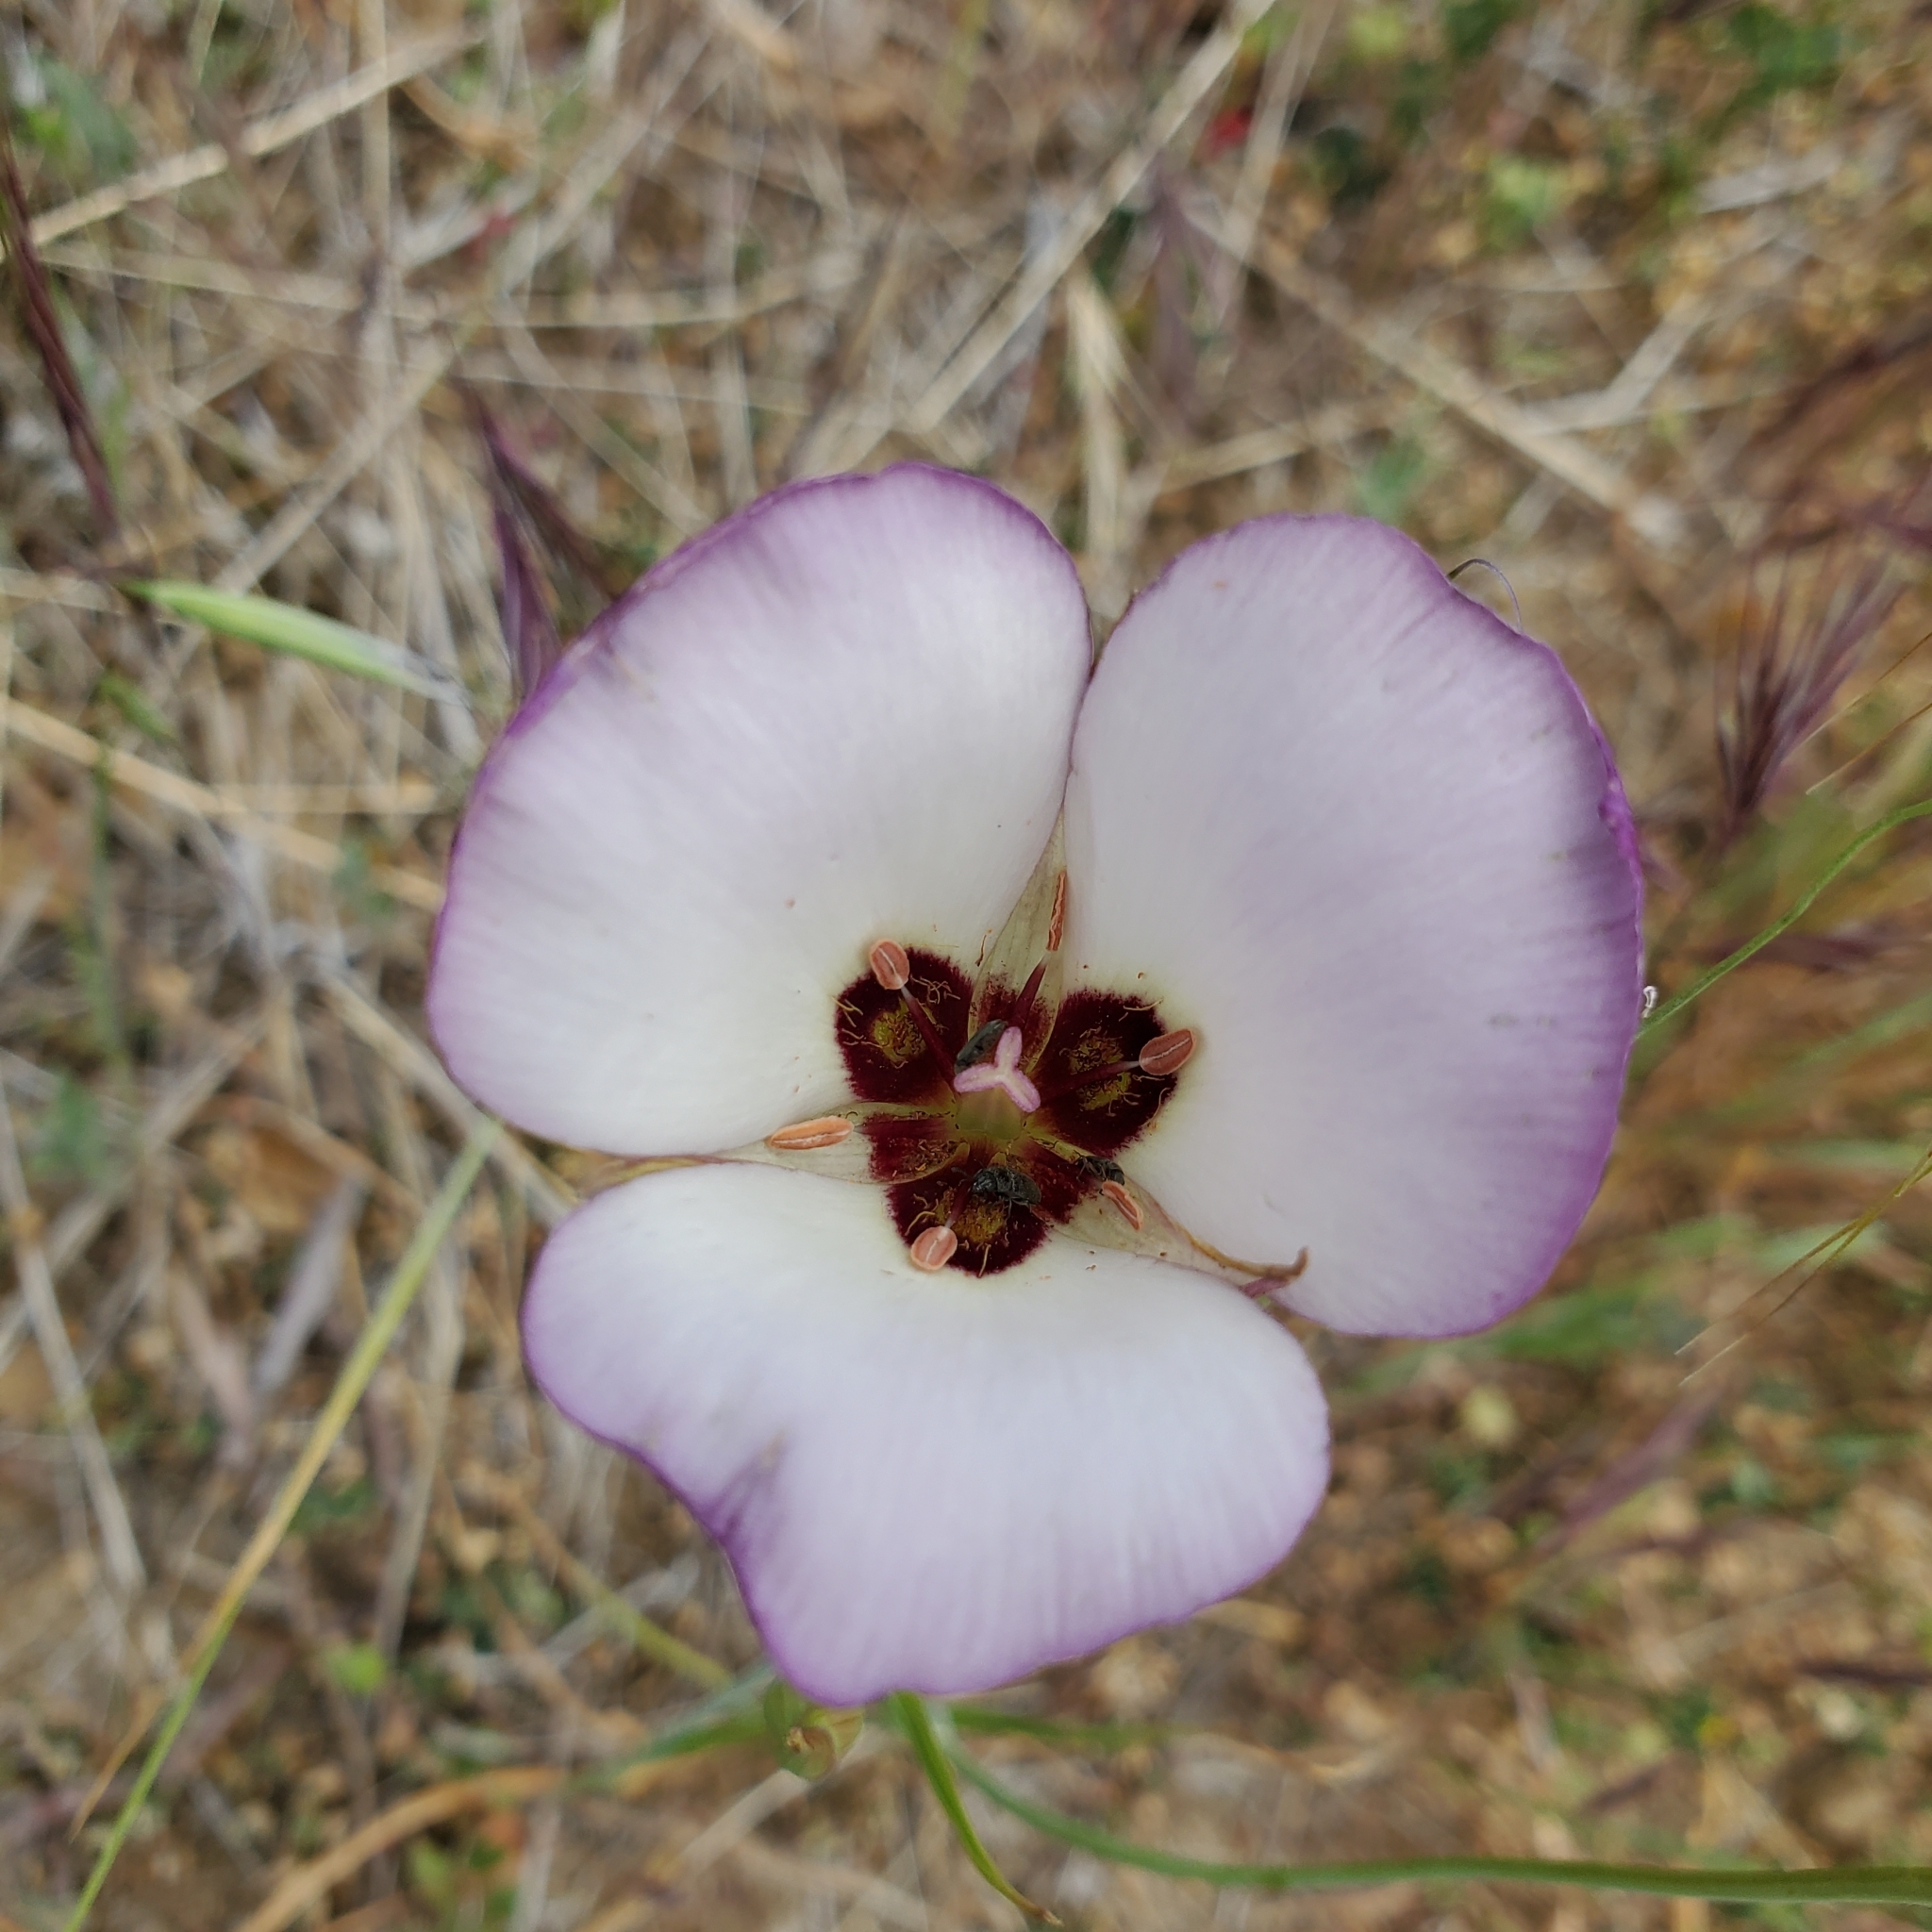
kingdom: Plantae
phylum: Tracheophyta
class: Liliopsida
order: Liliales
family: Liliaceae
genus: Calochortus
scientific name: Calochortus catalinae
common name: Catalina mariposa-lily
